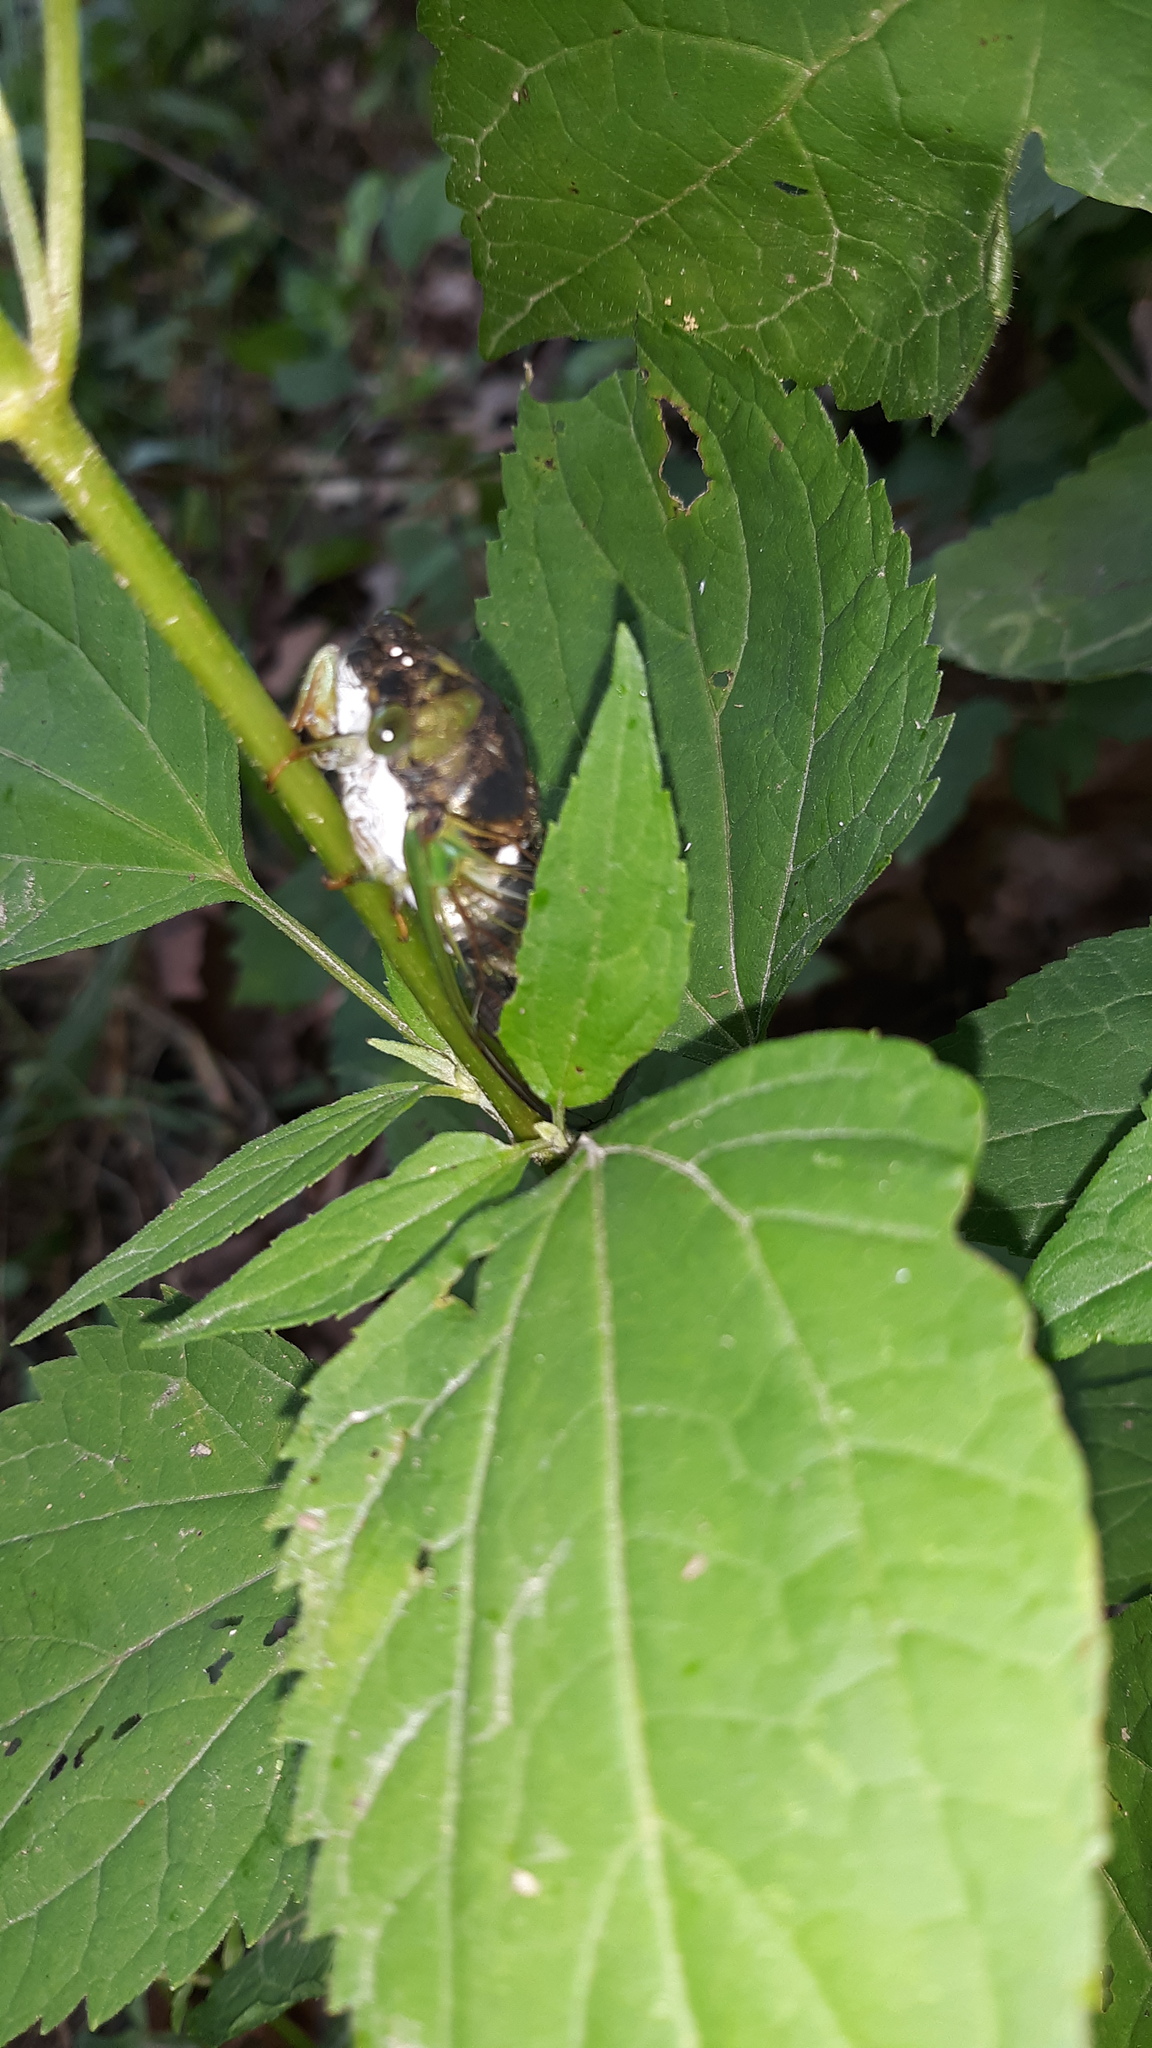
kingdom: Animalia
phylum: Arthropoda
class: Insecta
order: Hemiptera
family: Cicadidae
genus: Neotibicen
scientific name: Neotibicen tibicen
